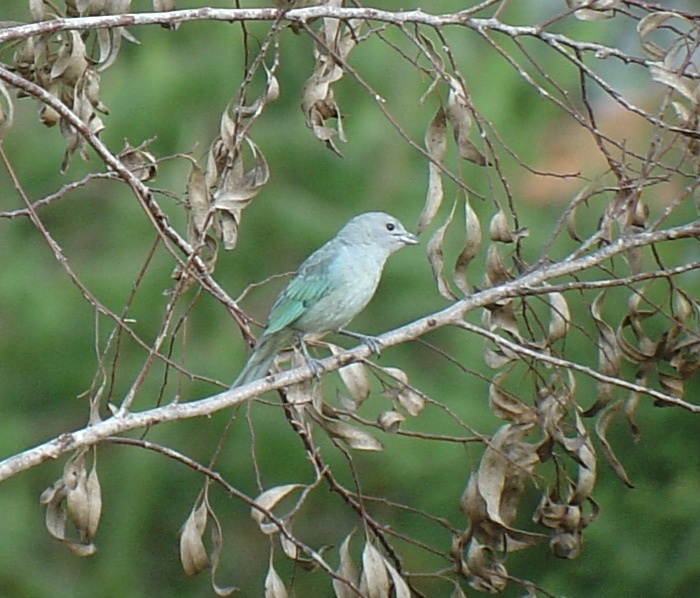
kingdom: Animalia
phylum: Chordata
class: Aves
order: Passeriformes
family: Thraupidae
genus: Thraupis
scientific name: Thraupis sayaca
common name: Sayaca tanager
